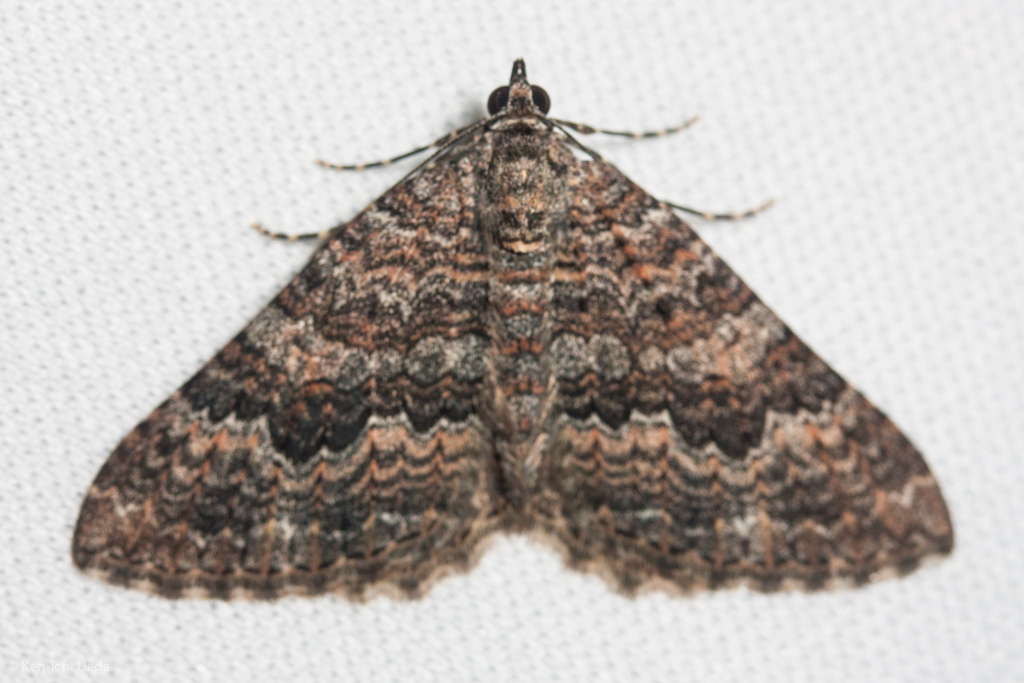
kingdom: Animalia
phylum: Arthropoda
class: Insecta
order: Lepidoptera
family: Geometridae
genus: Archirhoe
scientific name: Archirhoe neomexicana
